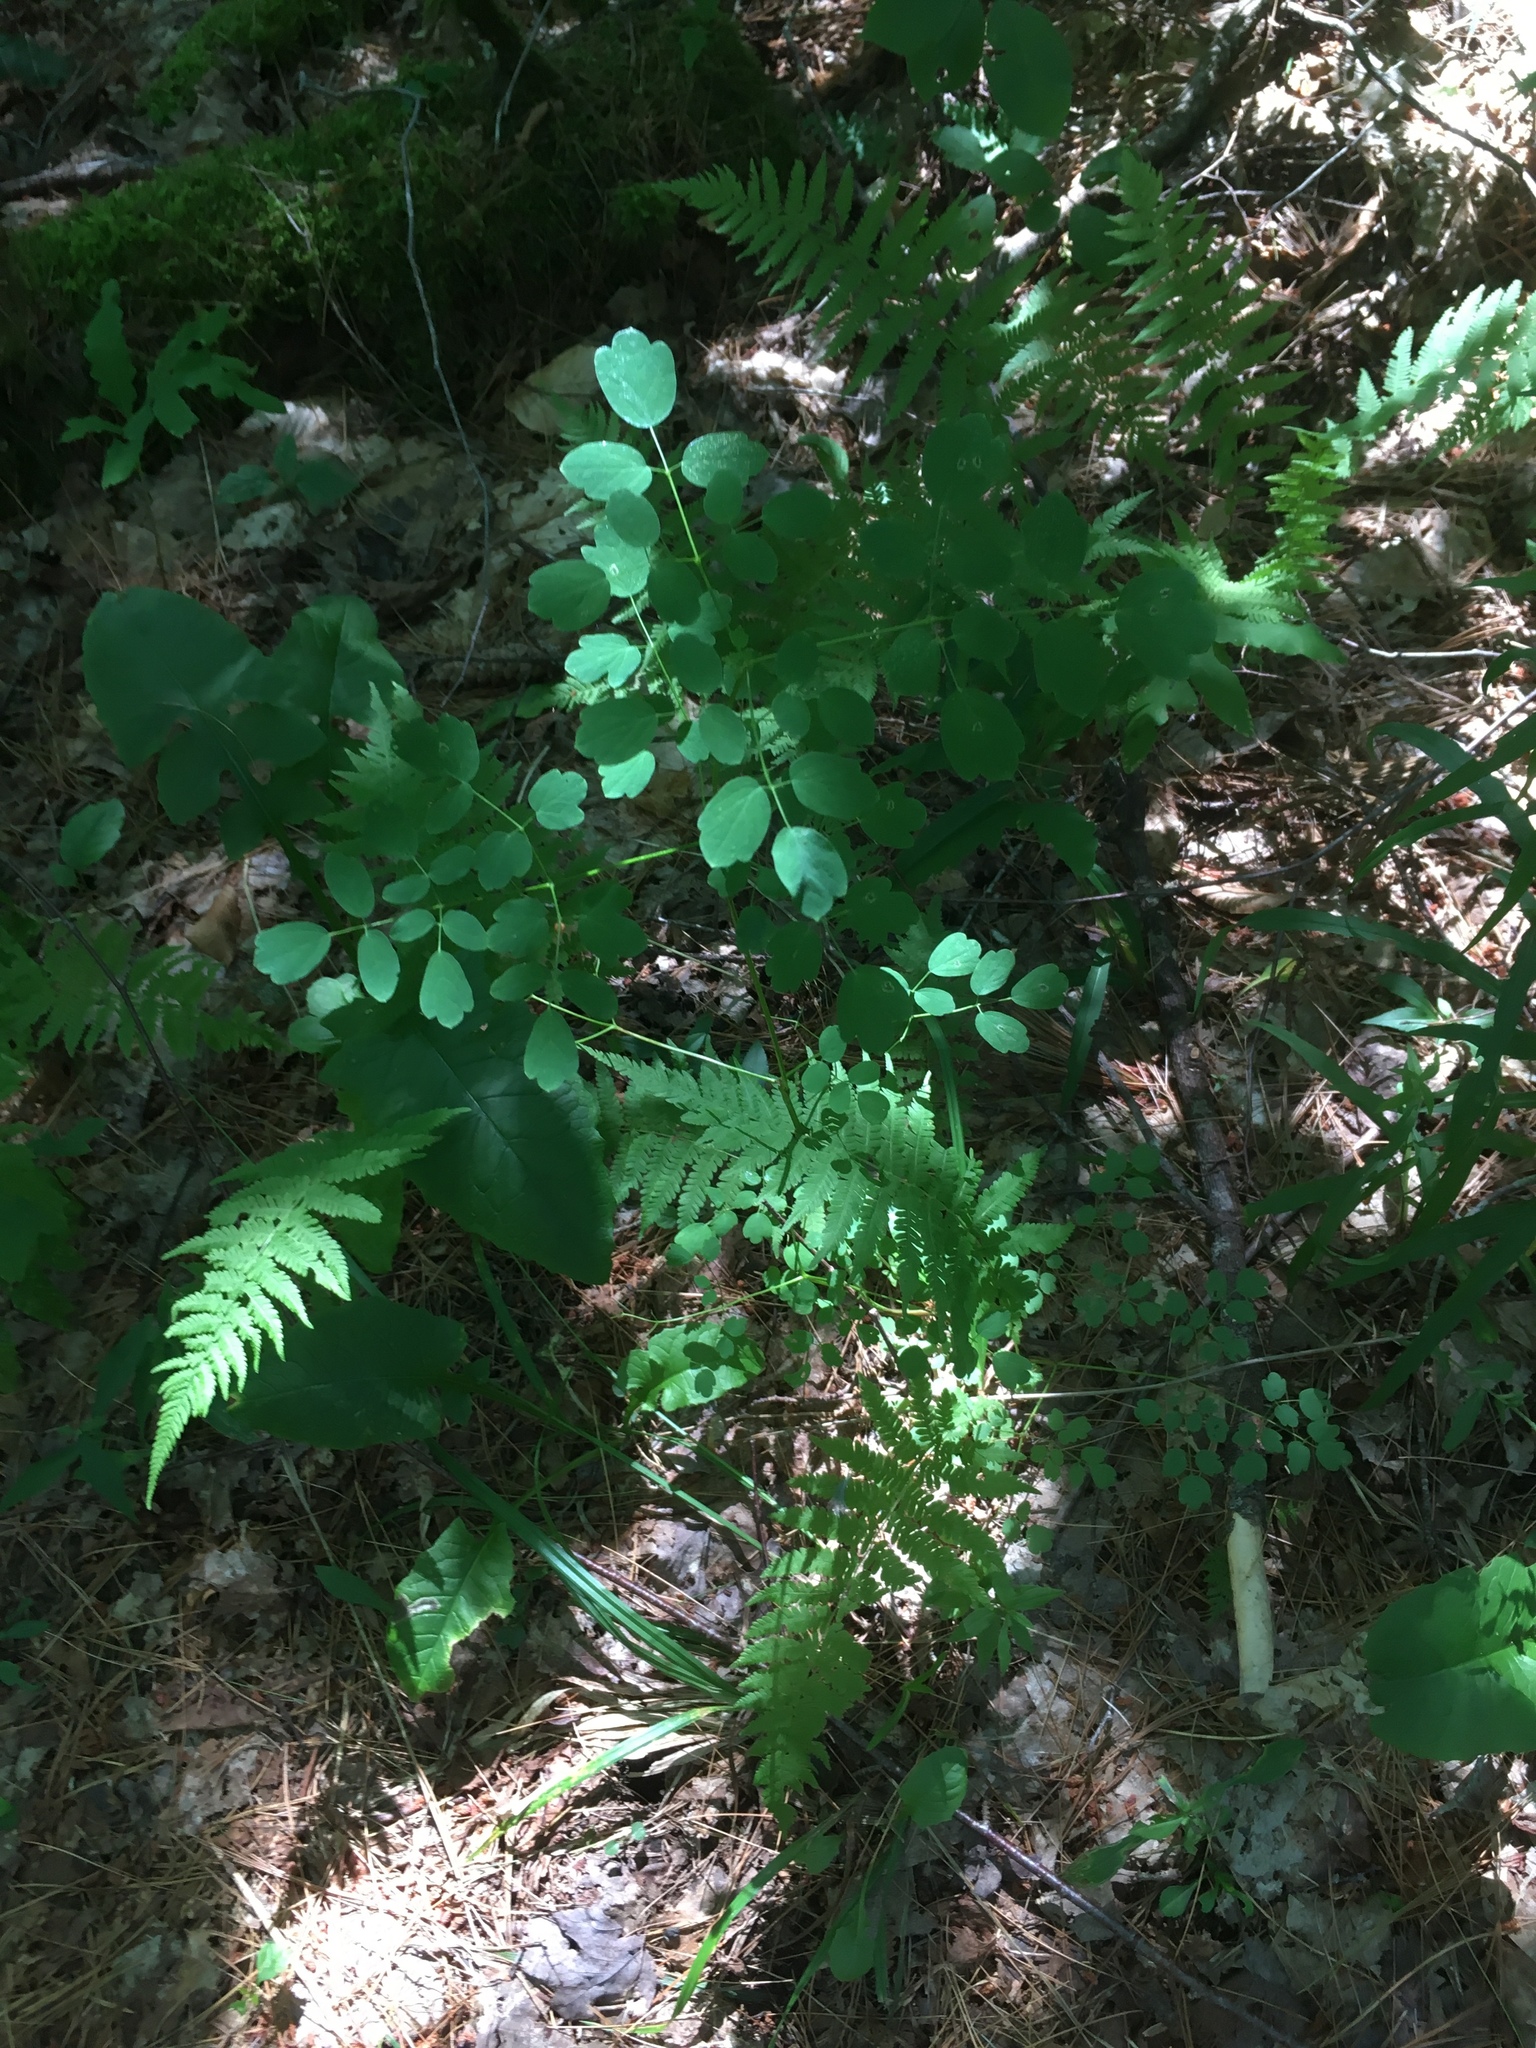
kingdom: Plantae
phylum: Tracheophyta
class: Magnoliopsida
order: Ranunculales
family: Ranunculaceae
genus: Thalictrum
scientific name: Thalictrum pubescens
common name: King-of-the-meadow
